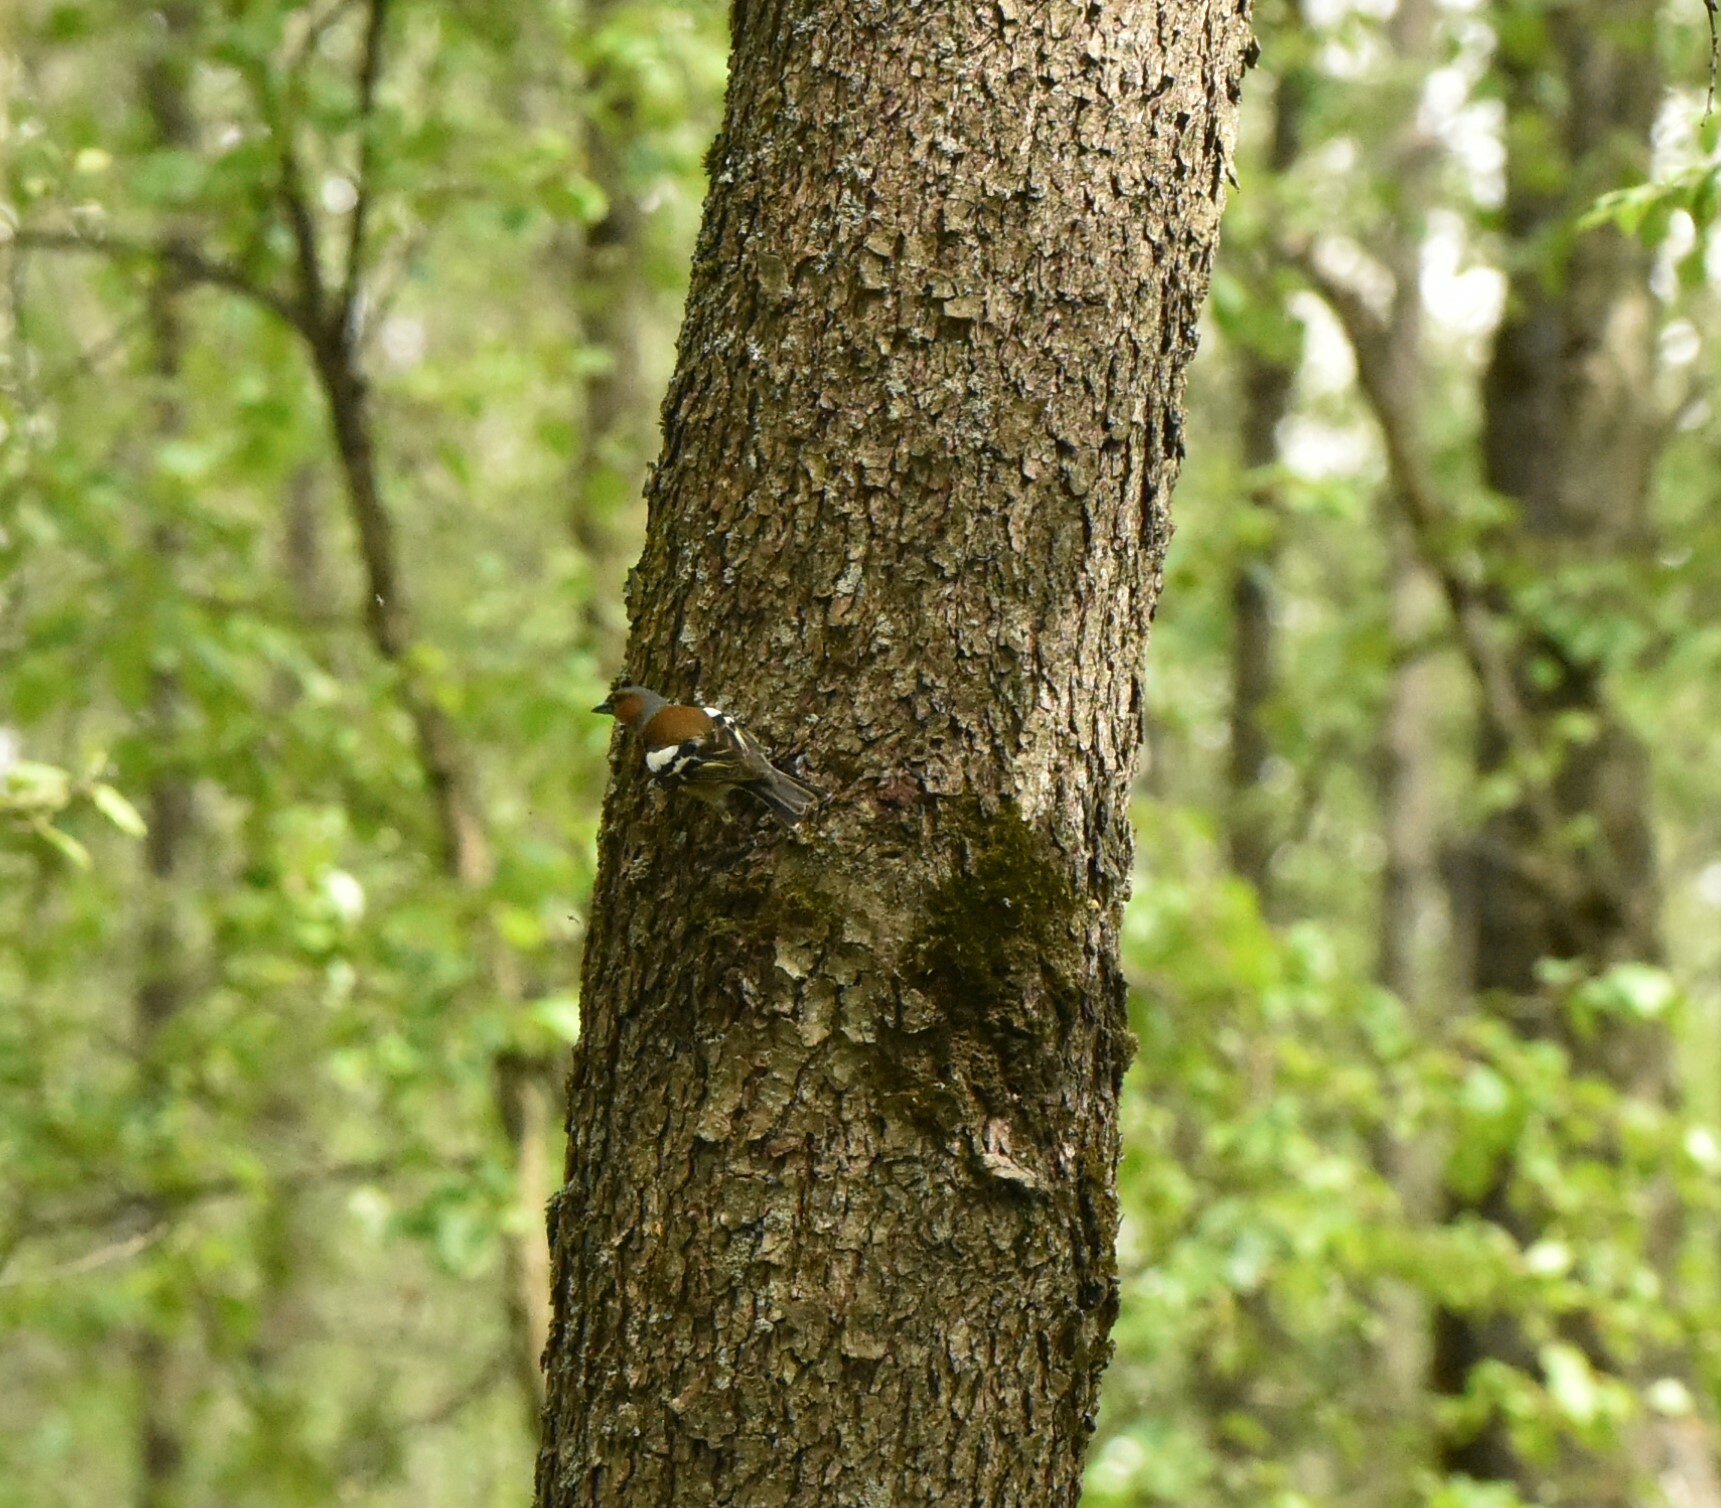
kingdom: Animalia
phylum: Chordata
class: Aves
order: Passeriformes
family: Fringillidae
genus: Fringilla
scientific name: Fringilla coelebs
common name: Common chaffinch
